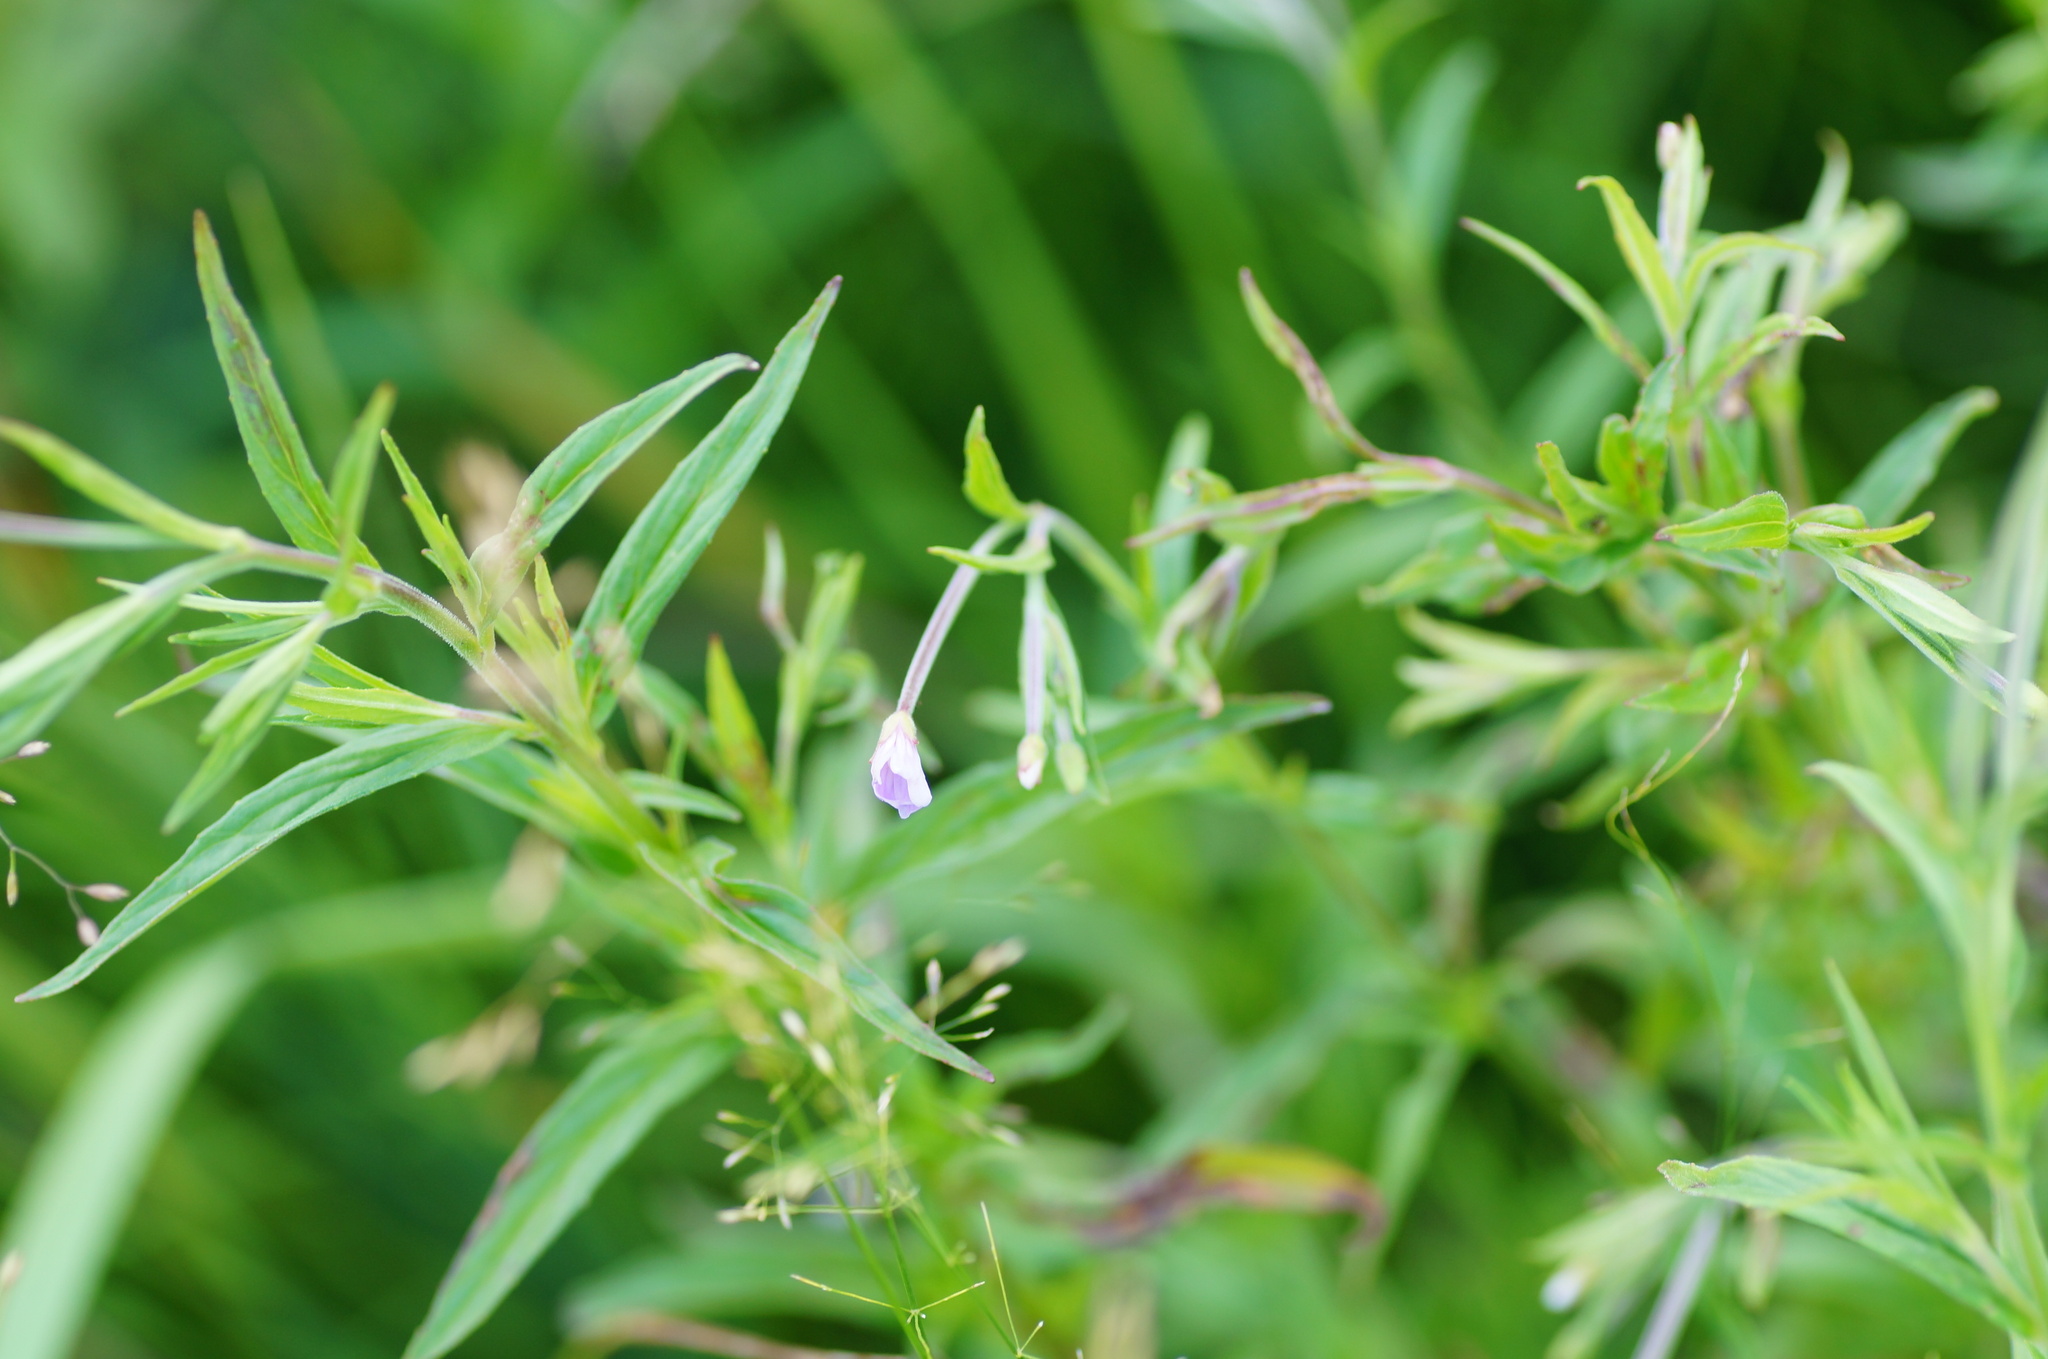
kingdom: Plantae
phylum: Tracheophyta
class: Magnoliopsida
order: Myrtales
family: Onagraceae
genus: Epilobium
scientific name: Epilobium palustre
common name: Marsh willowherb
